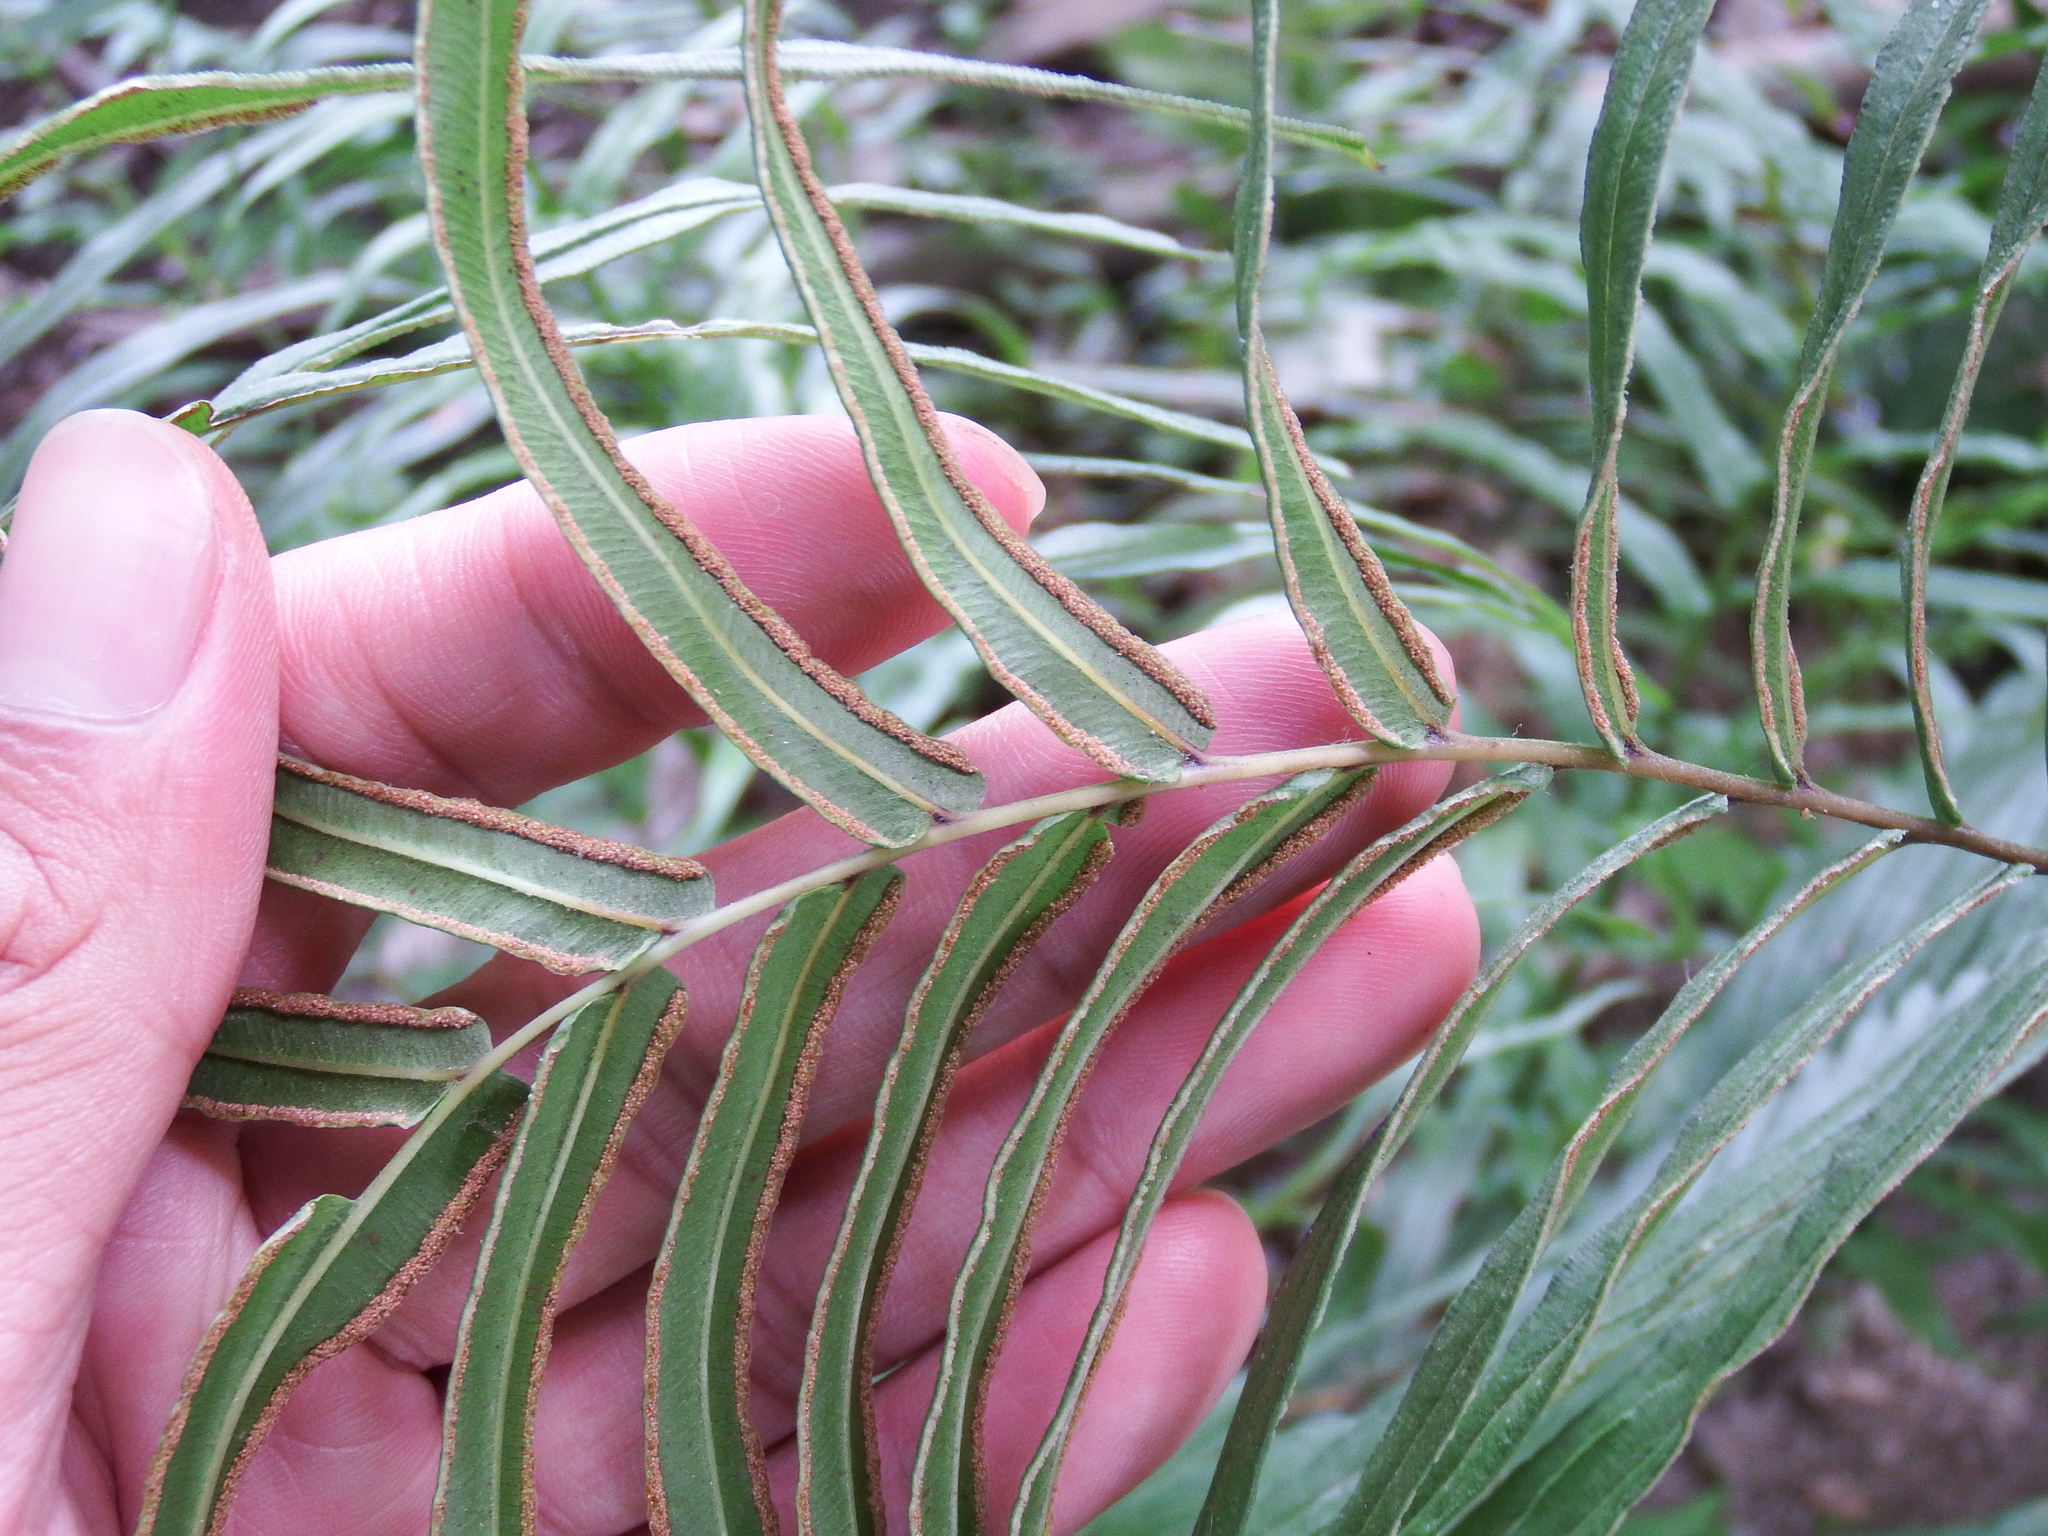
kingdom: Plantae
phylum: Tracheophyta
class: Polypodiopsida
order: Polypodiales
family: Pteridaceae
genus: Pteris
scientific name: Pteris vittata
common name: Ladder brake
